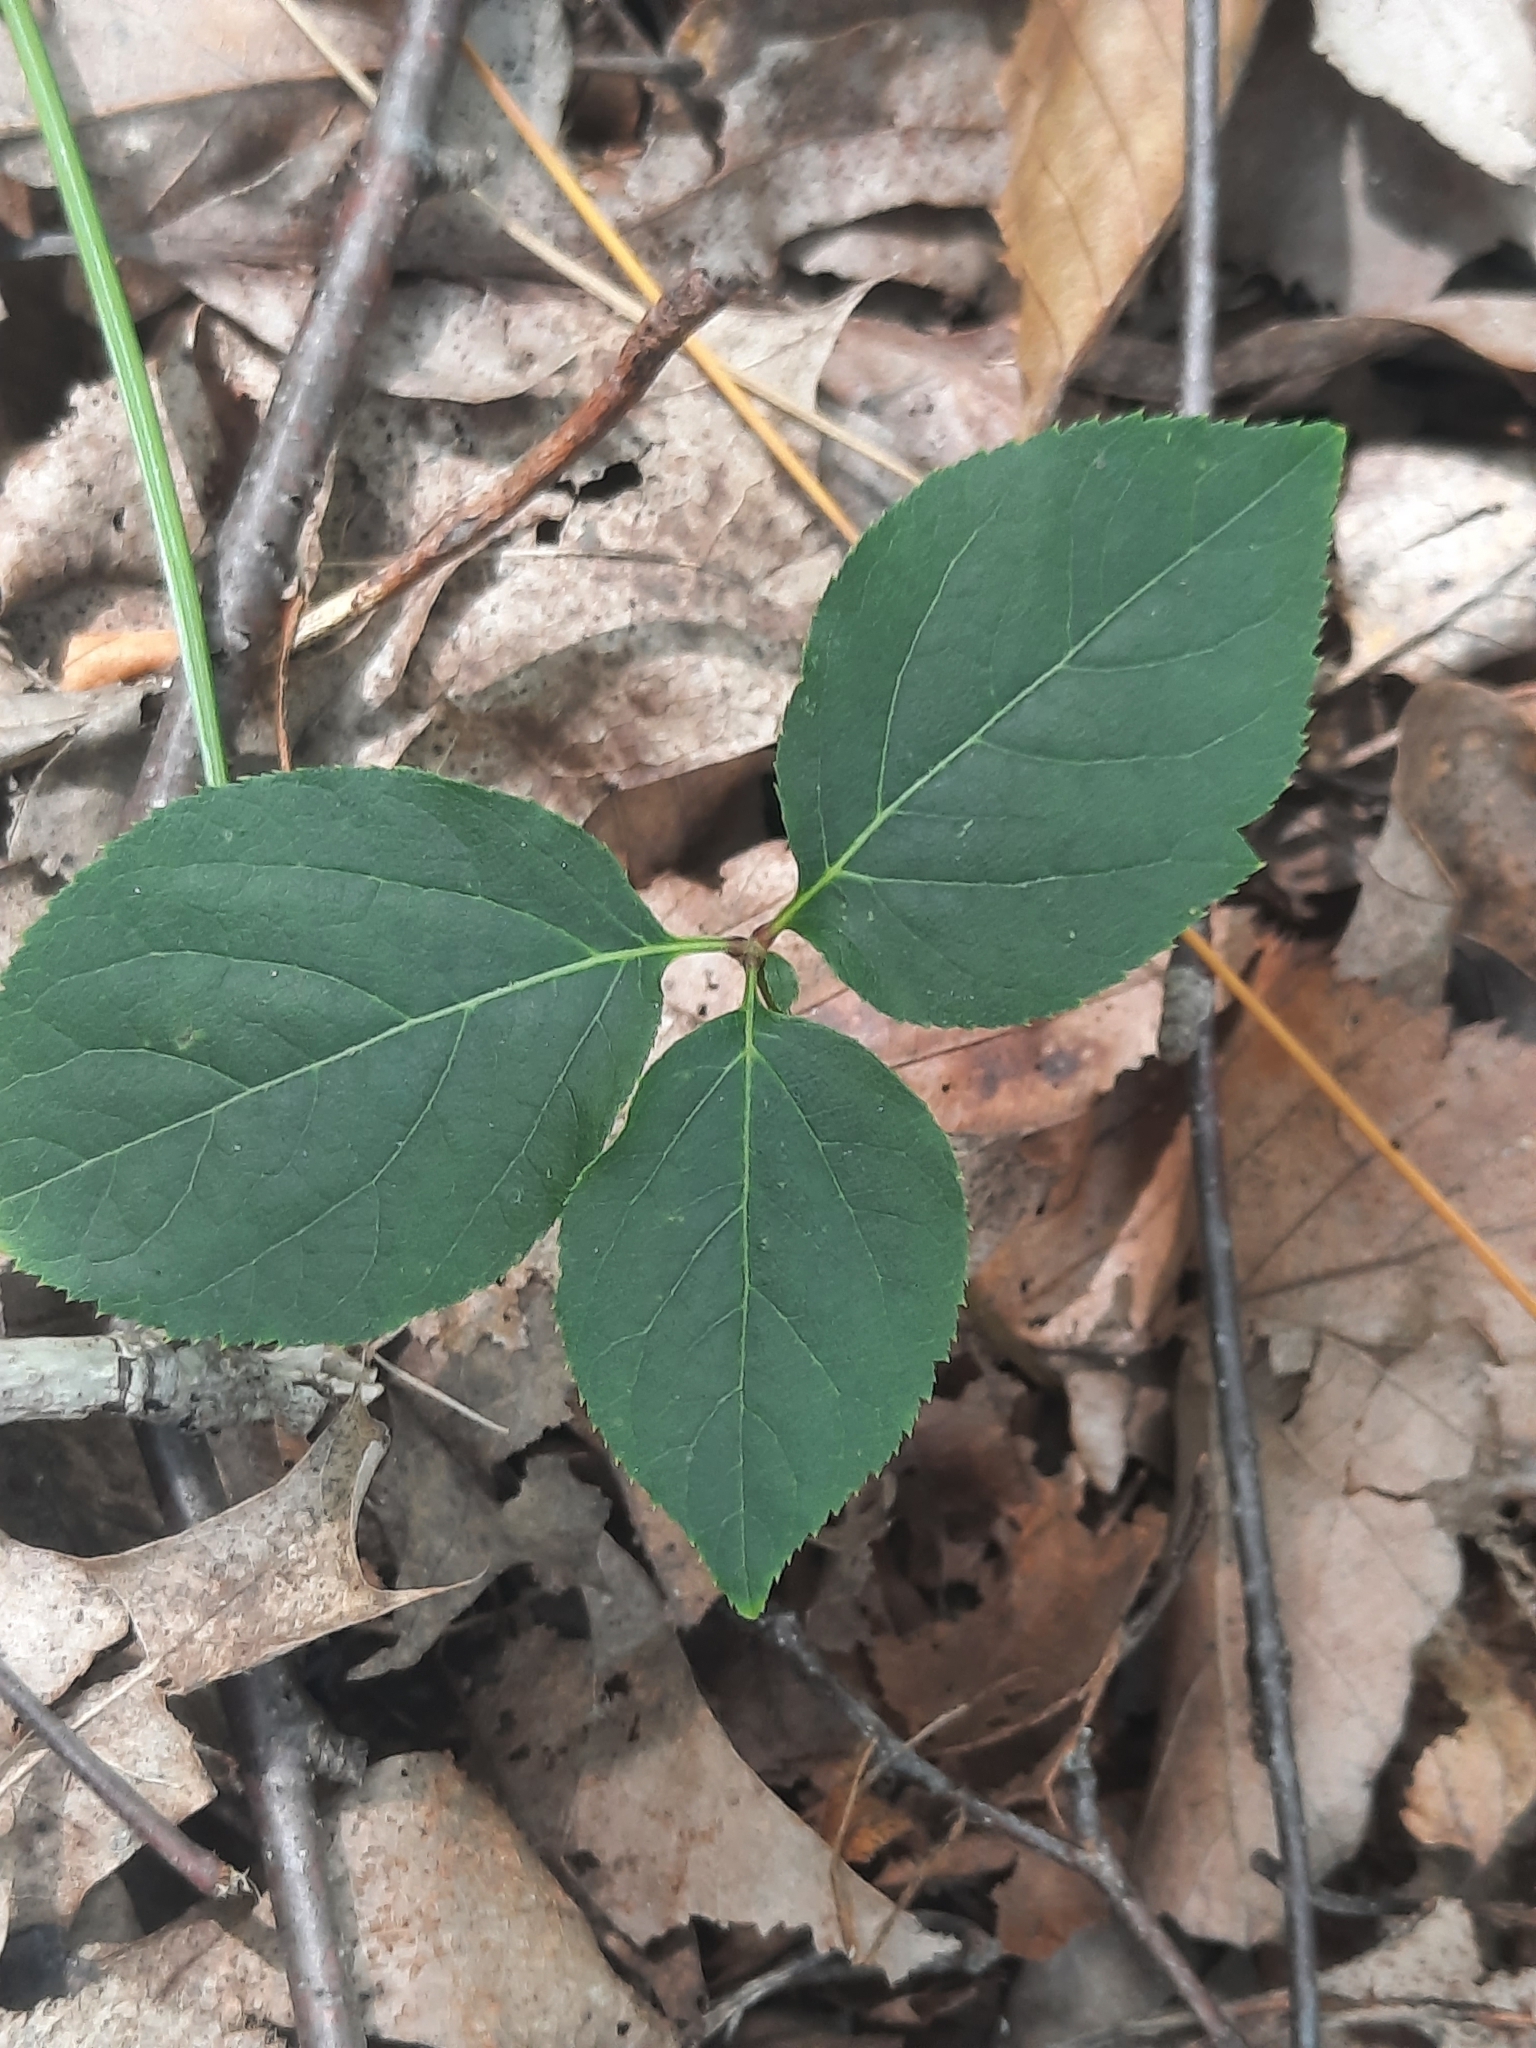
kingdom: Plantae
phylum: Tracheophyta
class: Magnoliopsida
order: Apiales
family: Araliaceae
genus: Aralia
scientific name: Aralia nudicaulis
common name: Wild sarsaparilla
